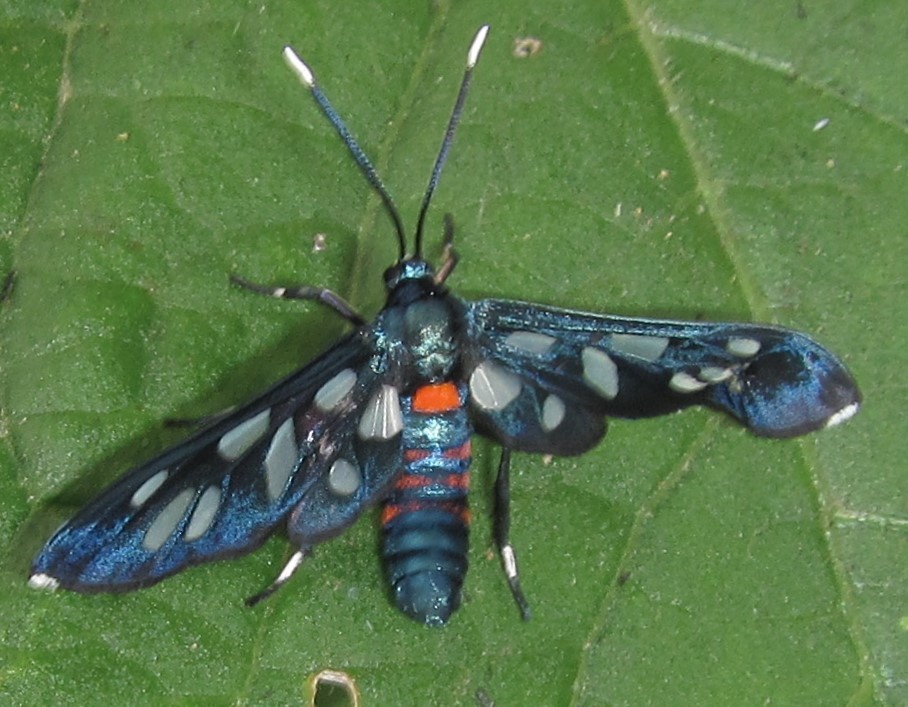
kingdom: Animalia
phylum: Arthropoda
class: Insecta
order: Lepidoptera
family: Erebidae
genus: Amata
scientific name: Amata kuhlweini
